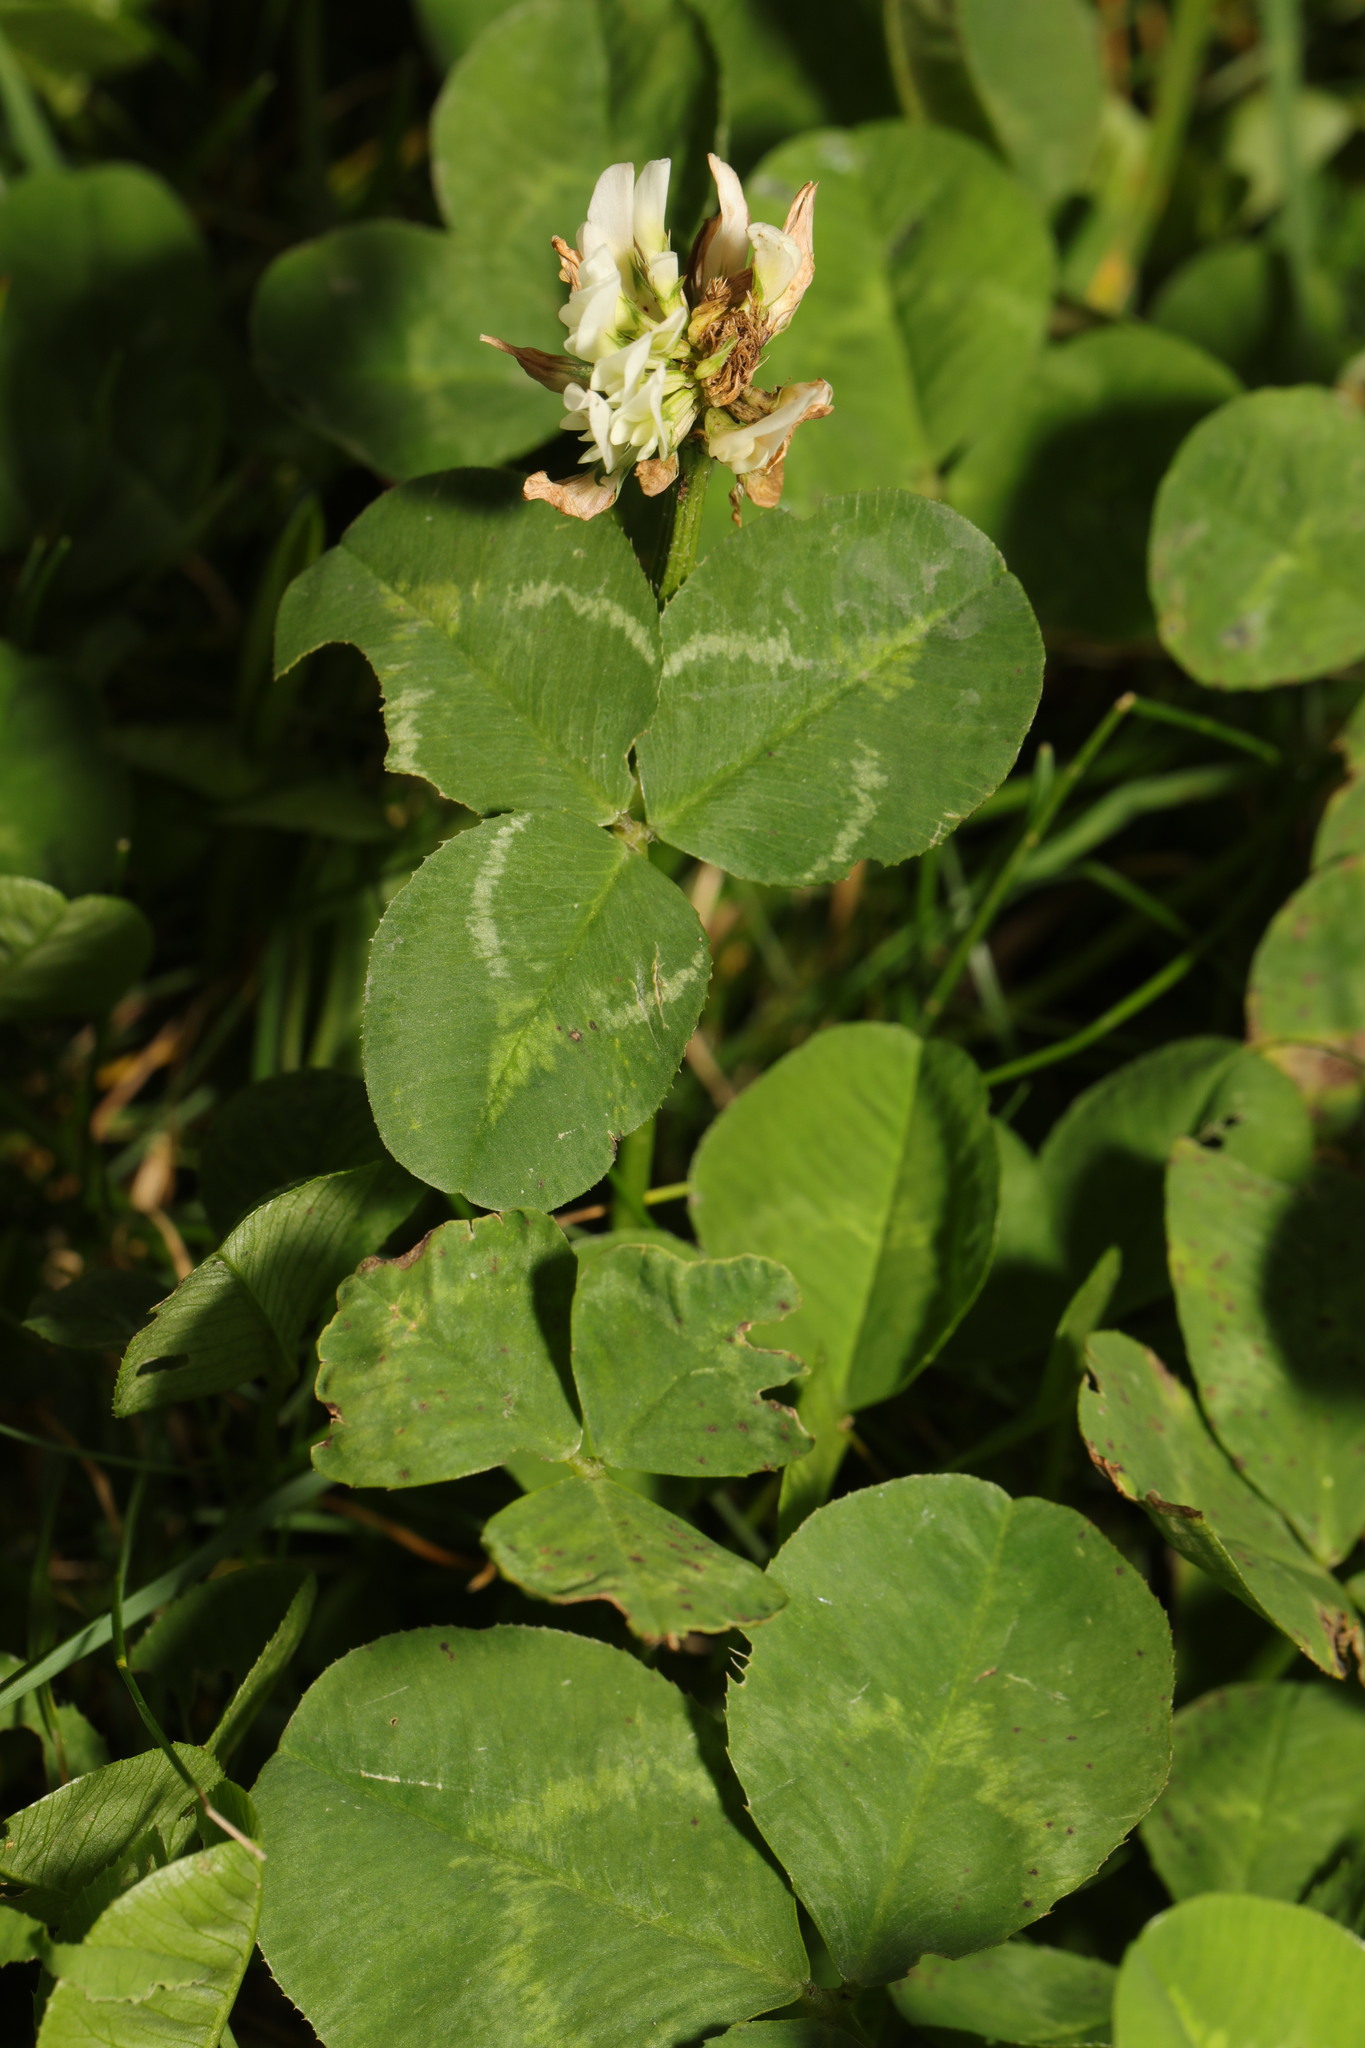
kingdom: Plantae
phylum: Tracheophyta
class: Magnoliopsida
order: Fabales
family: Fabaceae
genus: Trifolium
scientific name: Trifolium repens
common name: White clover
